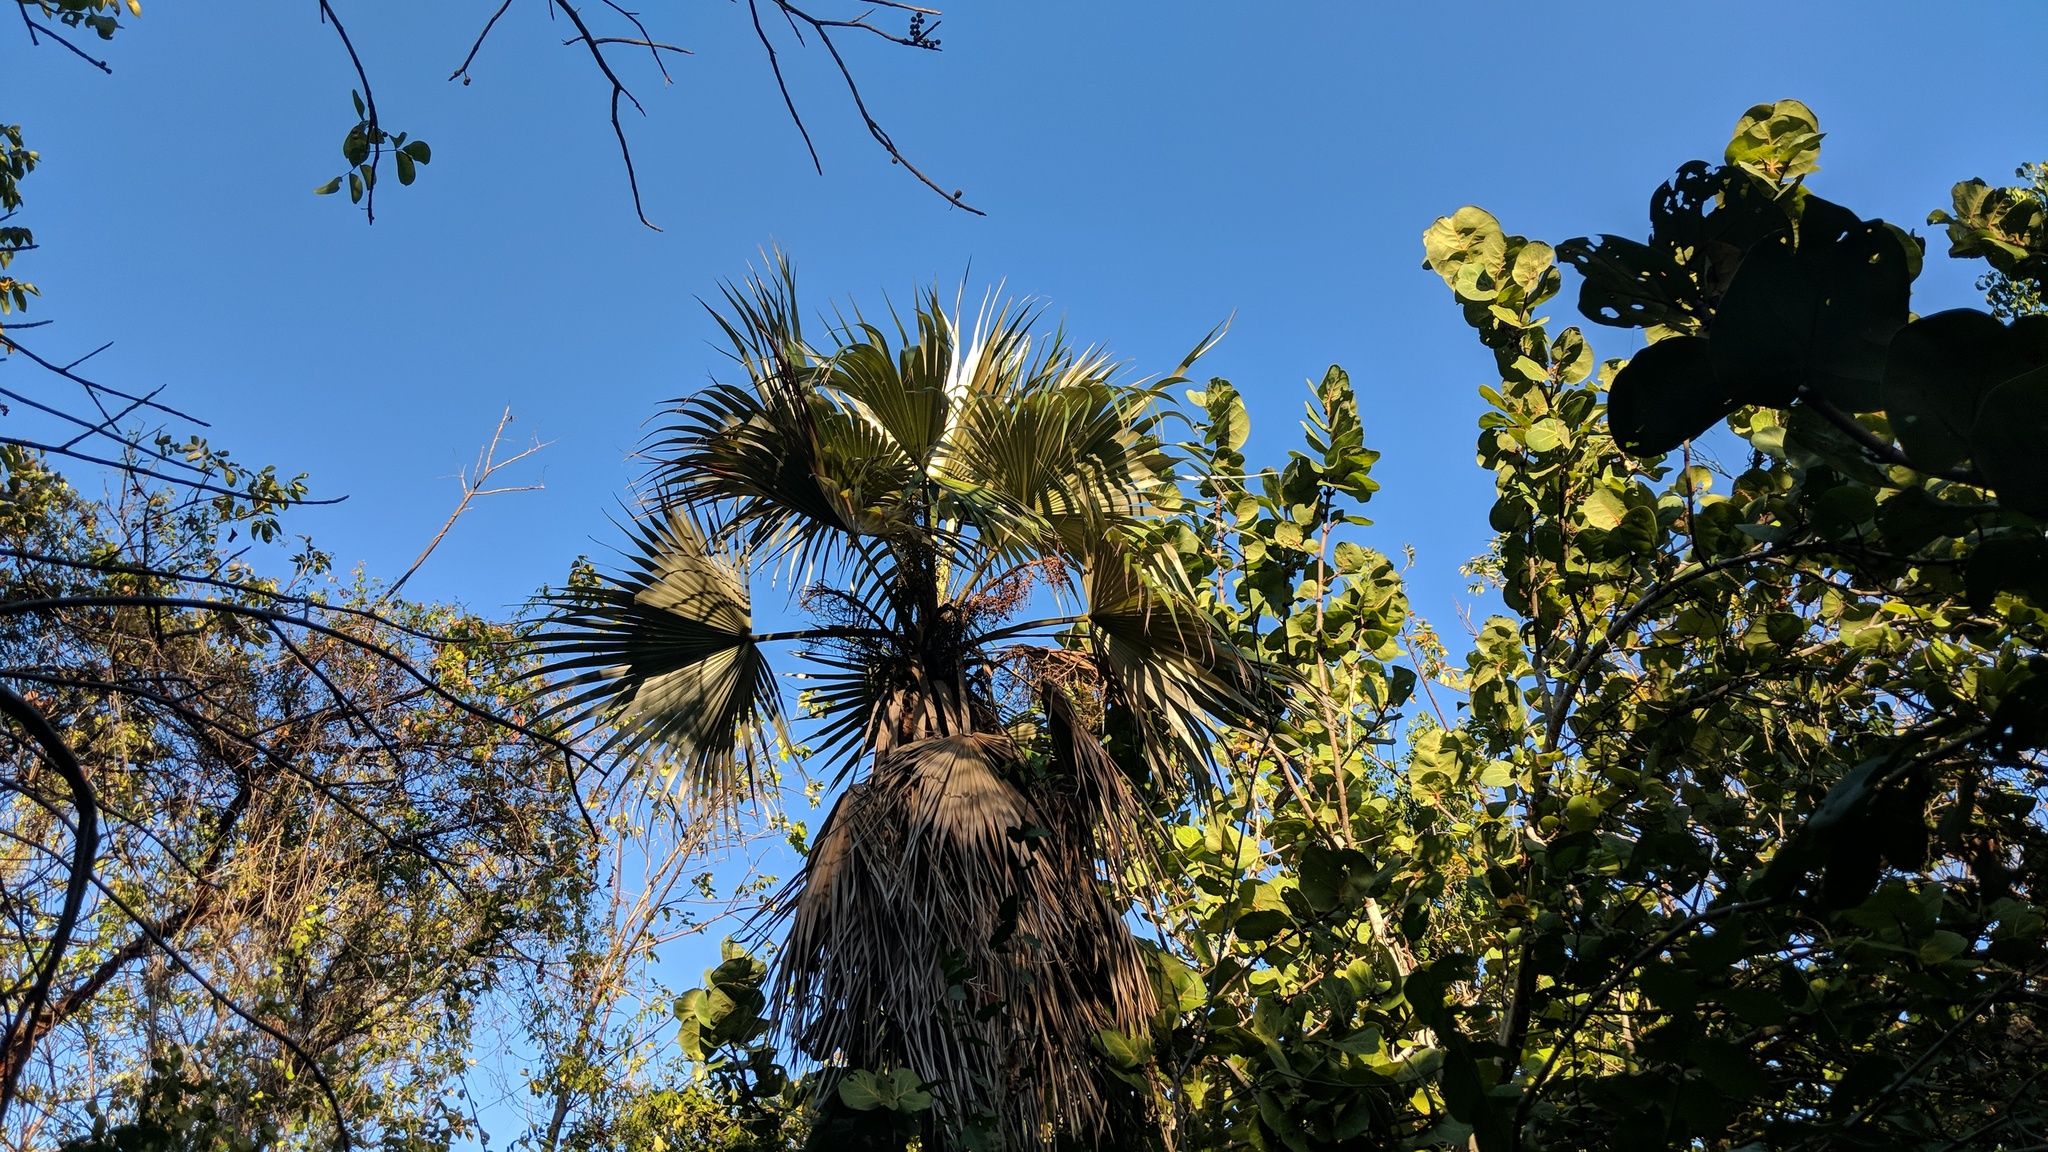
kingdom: Plantae
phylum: Tracheophyta
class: Liliopsida
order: Arecales
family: Arecaceae
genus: Coccothrinax
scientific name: Coccothrinax proctorii
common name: Silver palm
